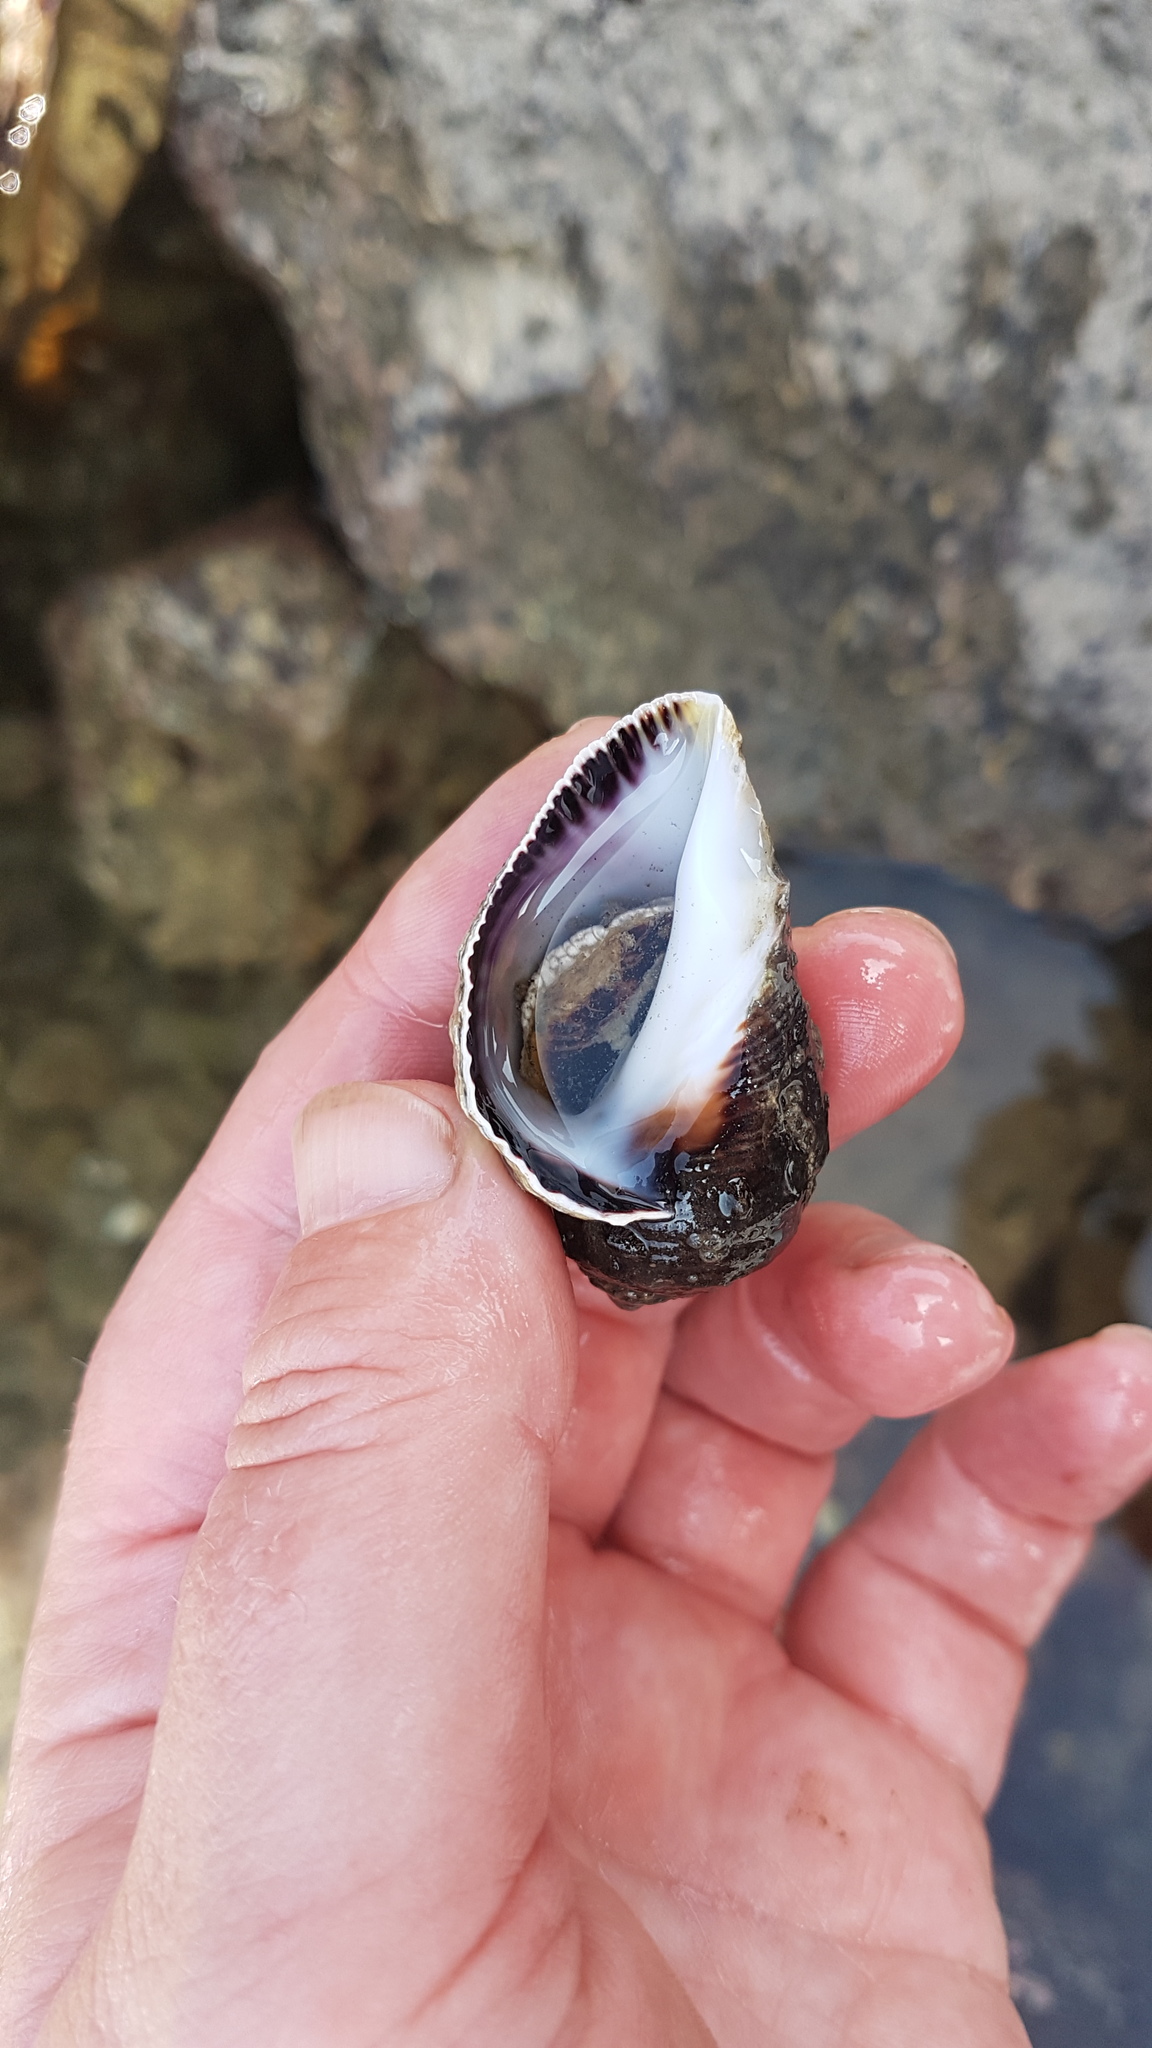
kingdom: Animalia
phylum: Mollusca
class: Gastropoda
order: Neogastropoda
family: Muricidae
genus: Haustrum
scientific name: Haustrum haustorium
